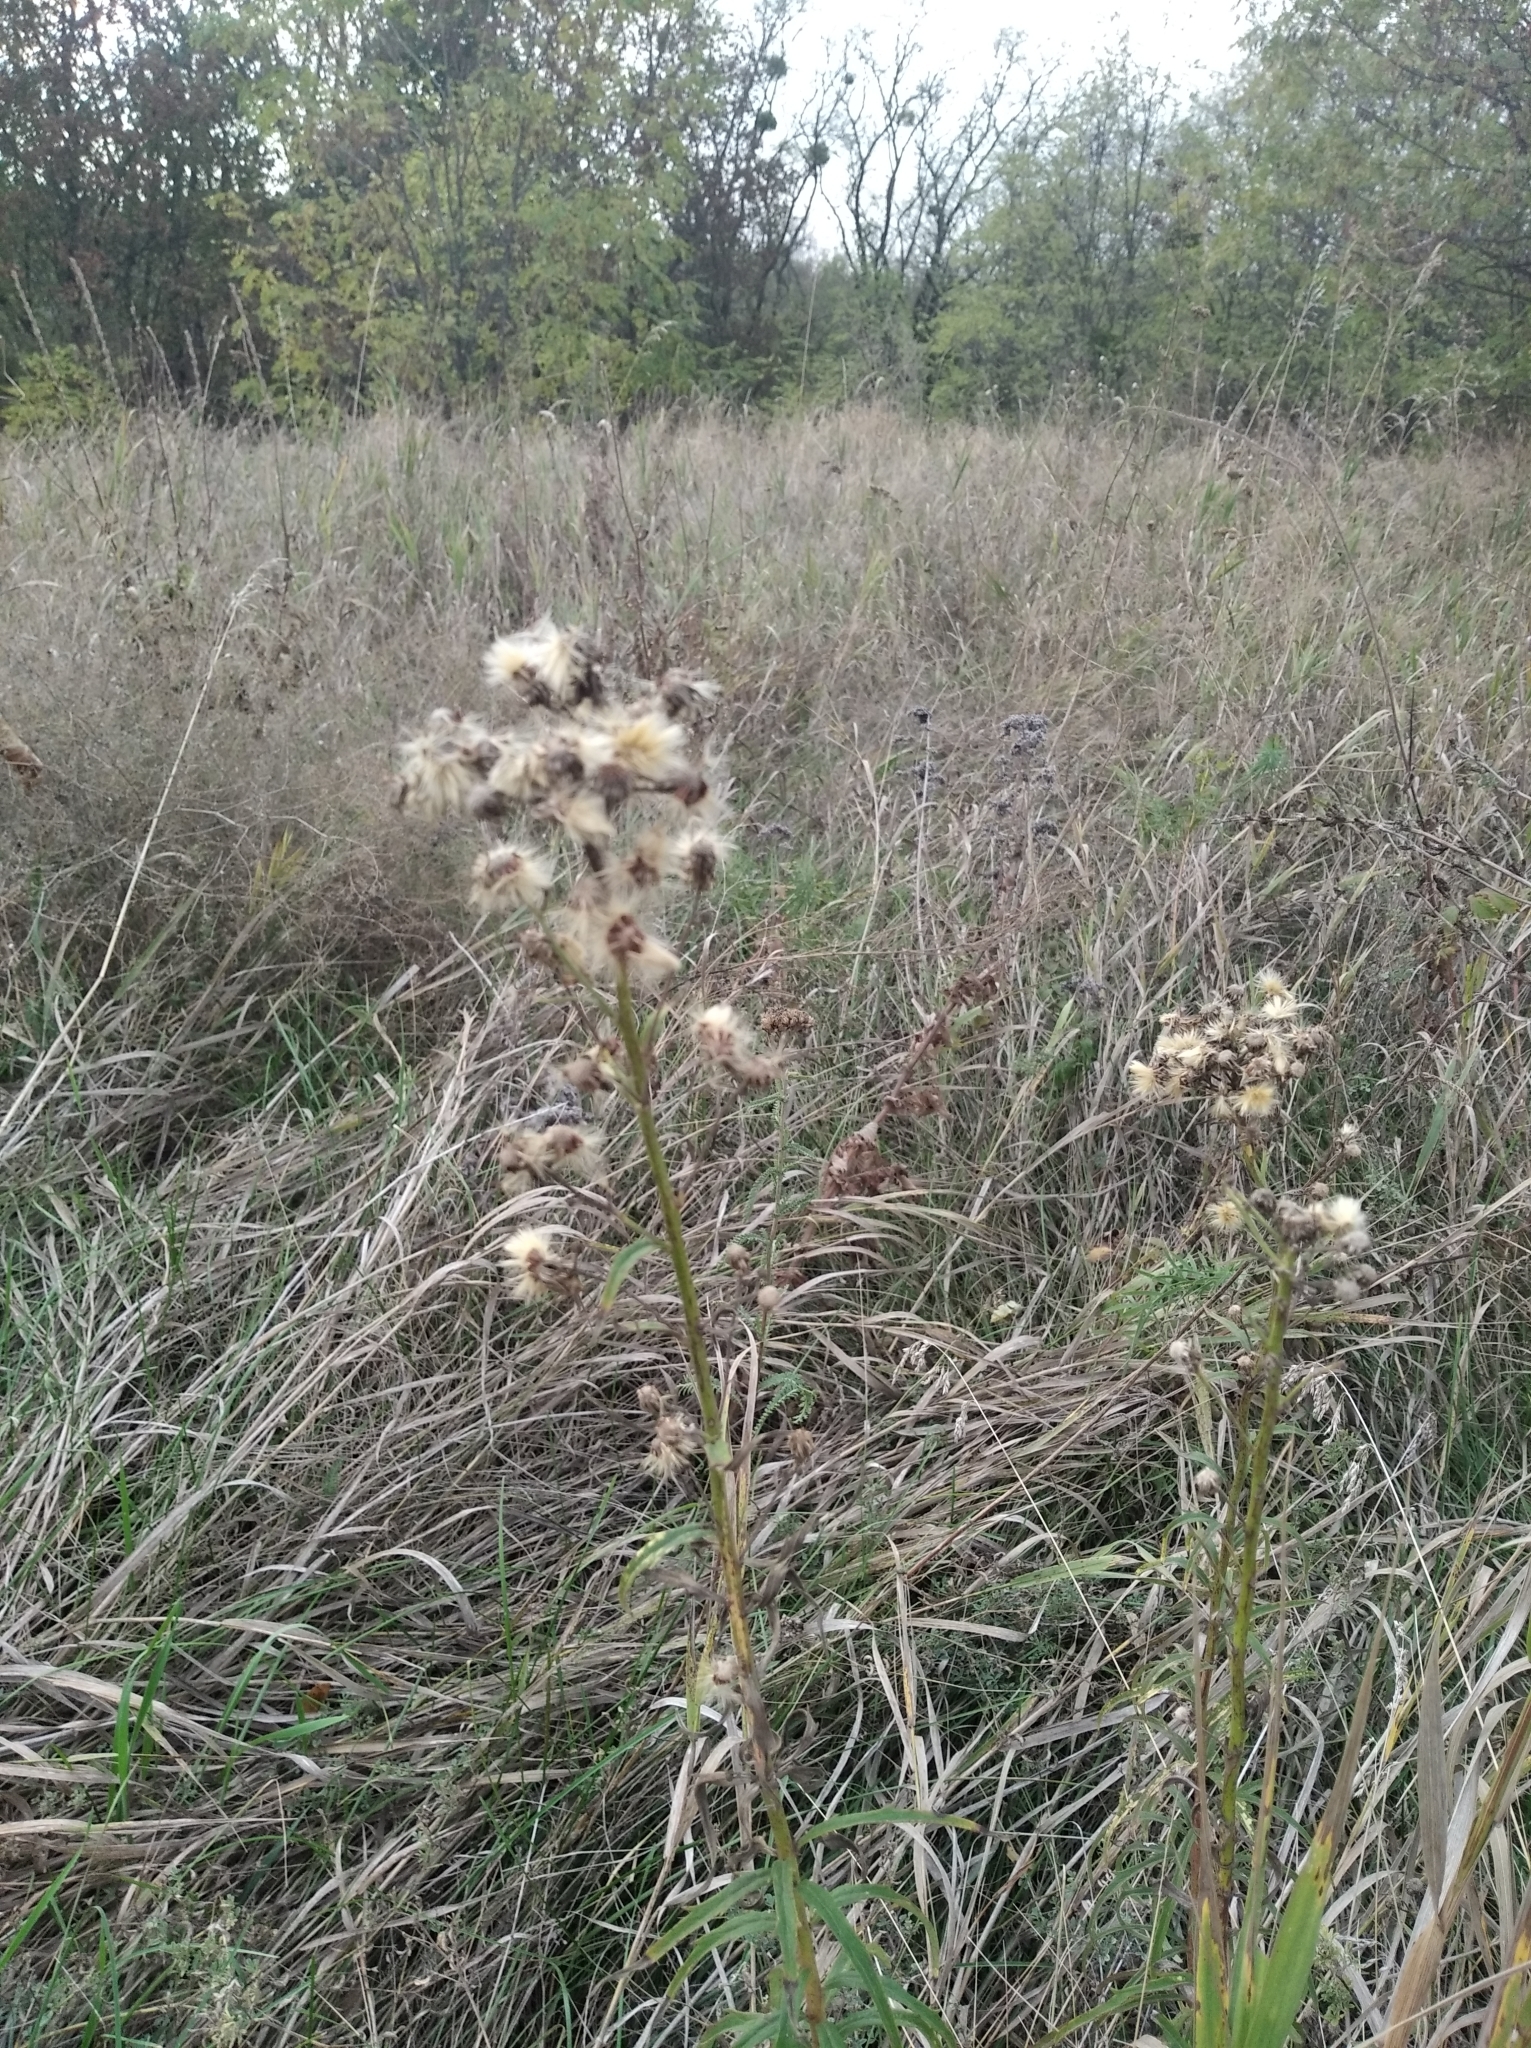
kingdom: Plantae
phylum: Tracheophyta
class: Magnoliopsida
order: Asterales
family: Asteraceae
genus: Hieracium
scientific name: Hieracium umbellatum
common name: Northern hawkweed
